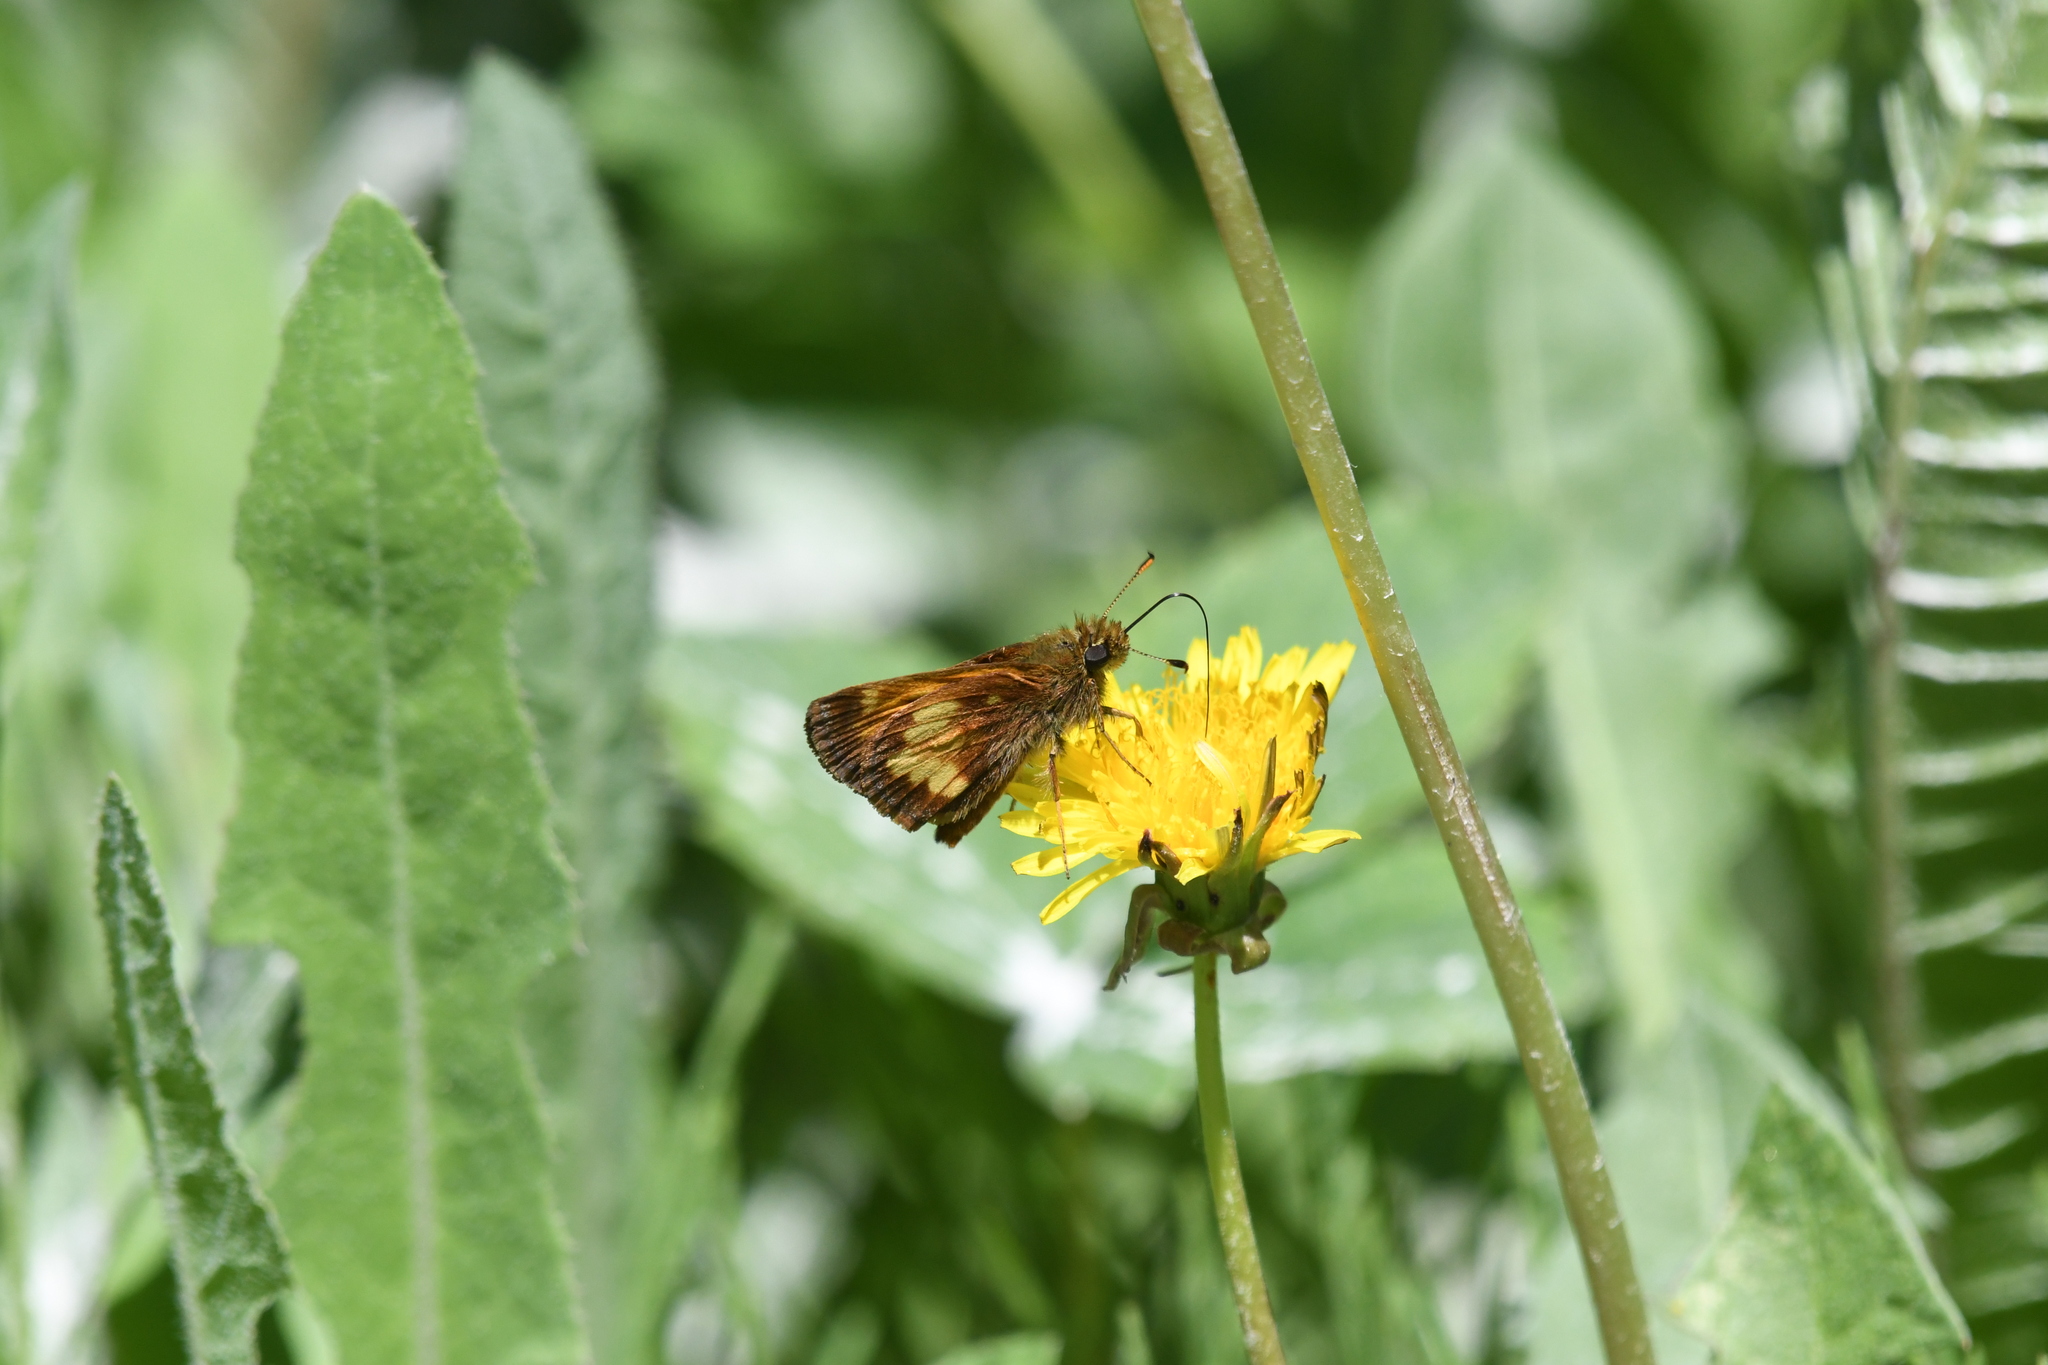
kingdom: Animalia
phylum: Arthropoda
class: Insecta
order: Lepidoptera
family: Hesperiidae
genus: Lon
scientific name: Lon hobomok
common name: Hobomok skipper
